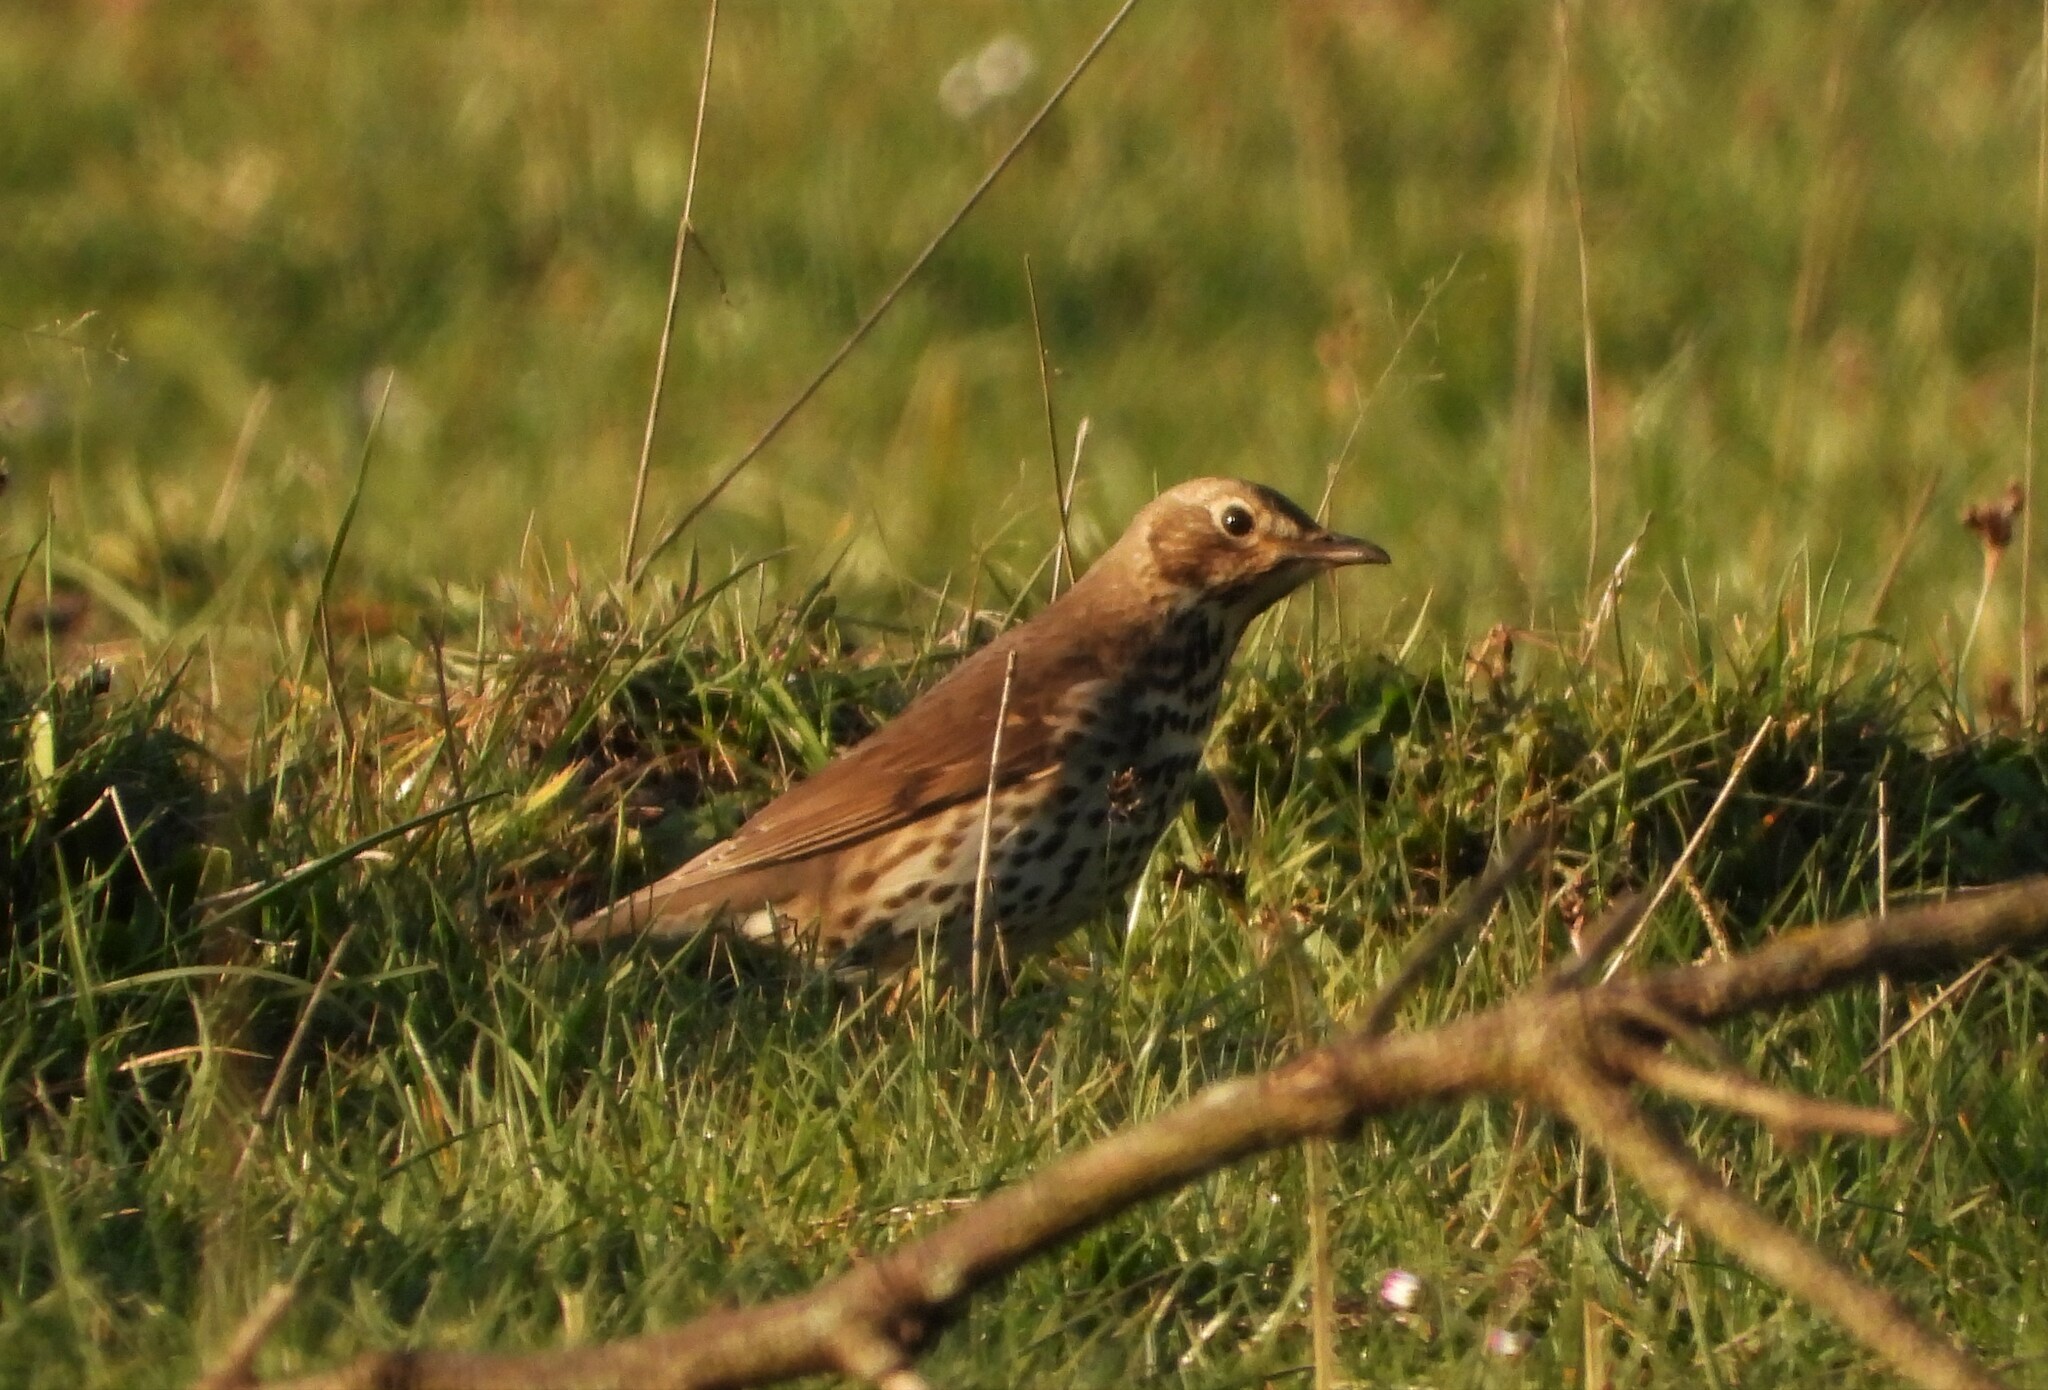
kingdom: Animalia
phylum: Chordata
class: Aves
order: Passeriformes
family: Turdidae
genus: Turdus
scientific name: Turdus philomelos
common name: Song thrush
